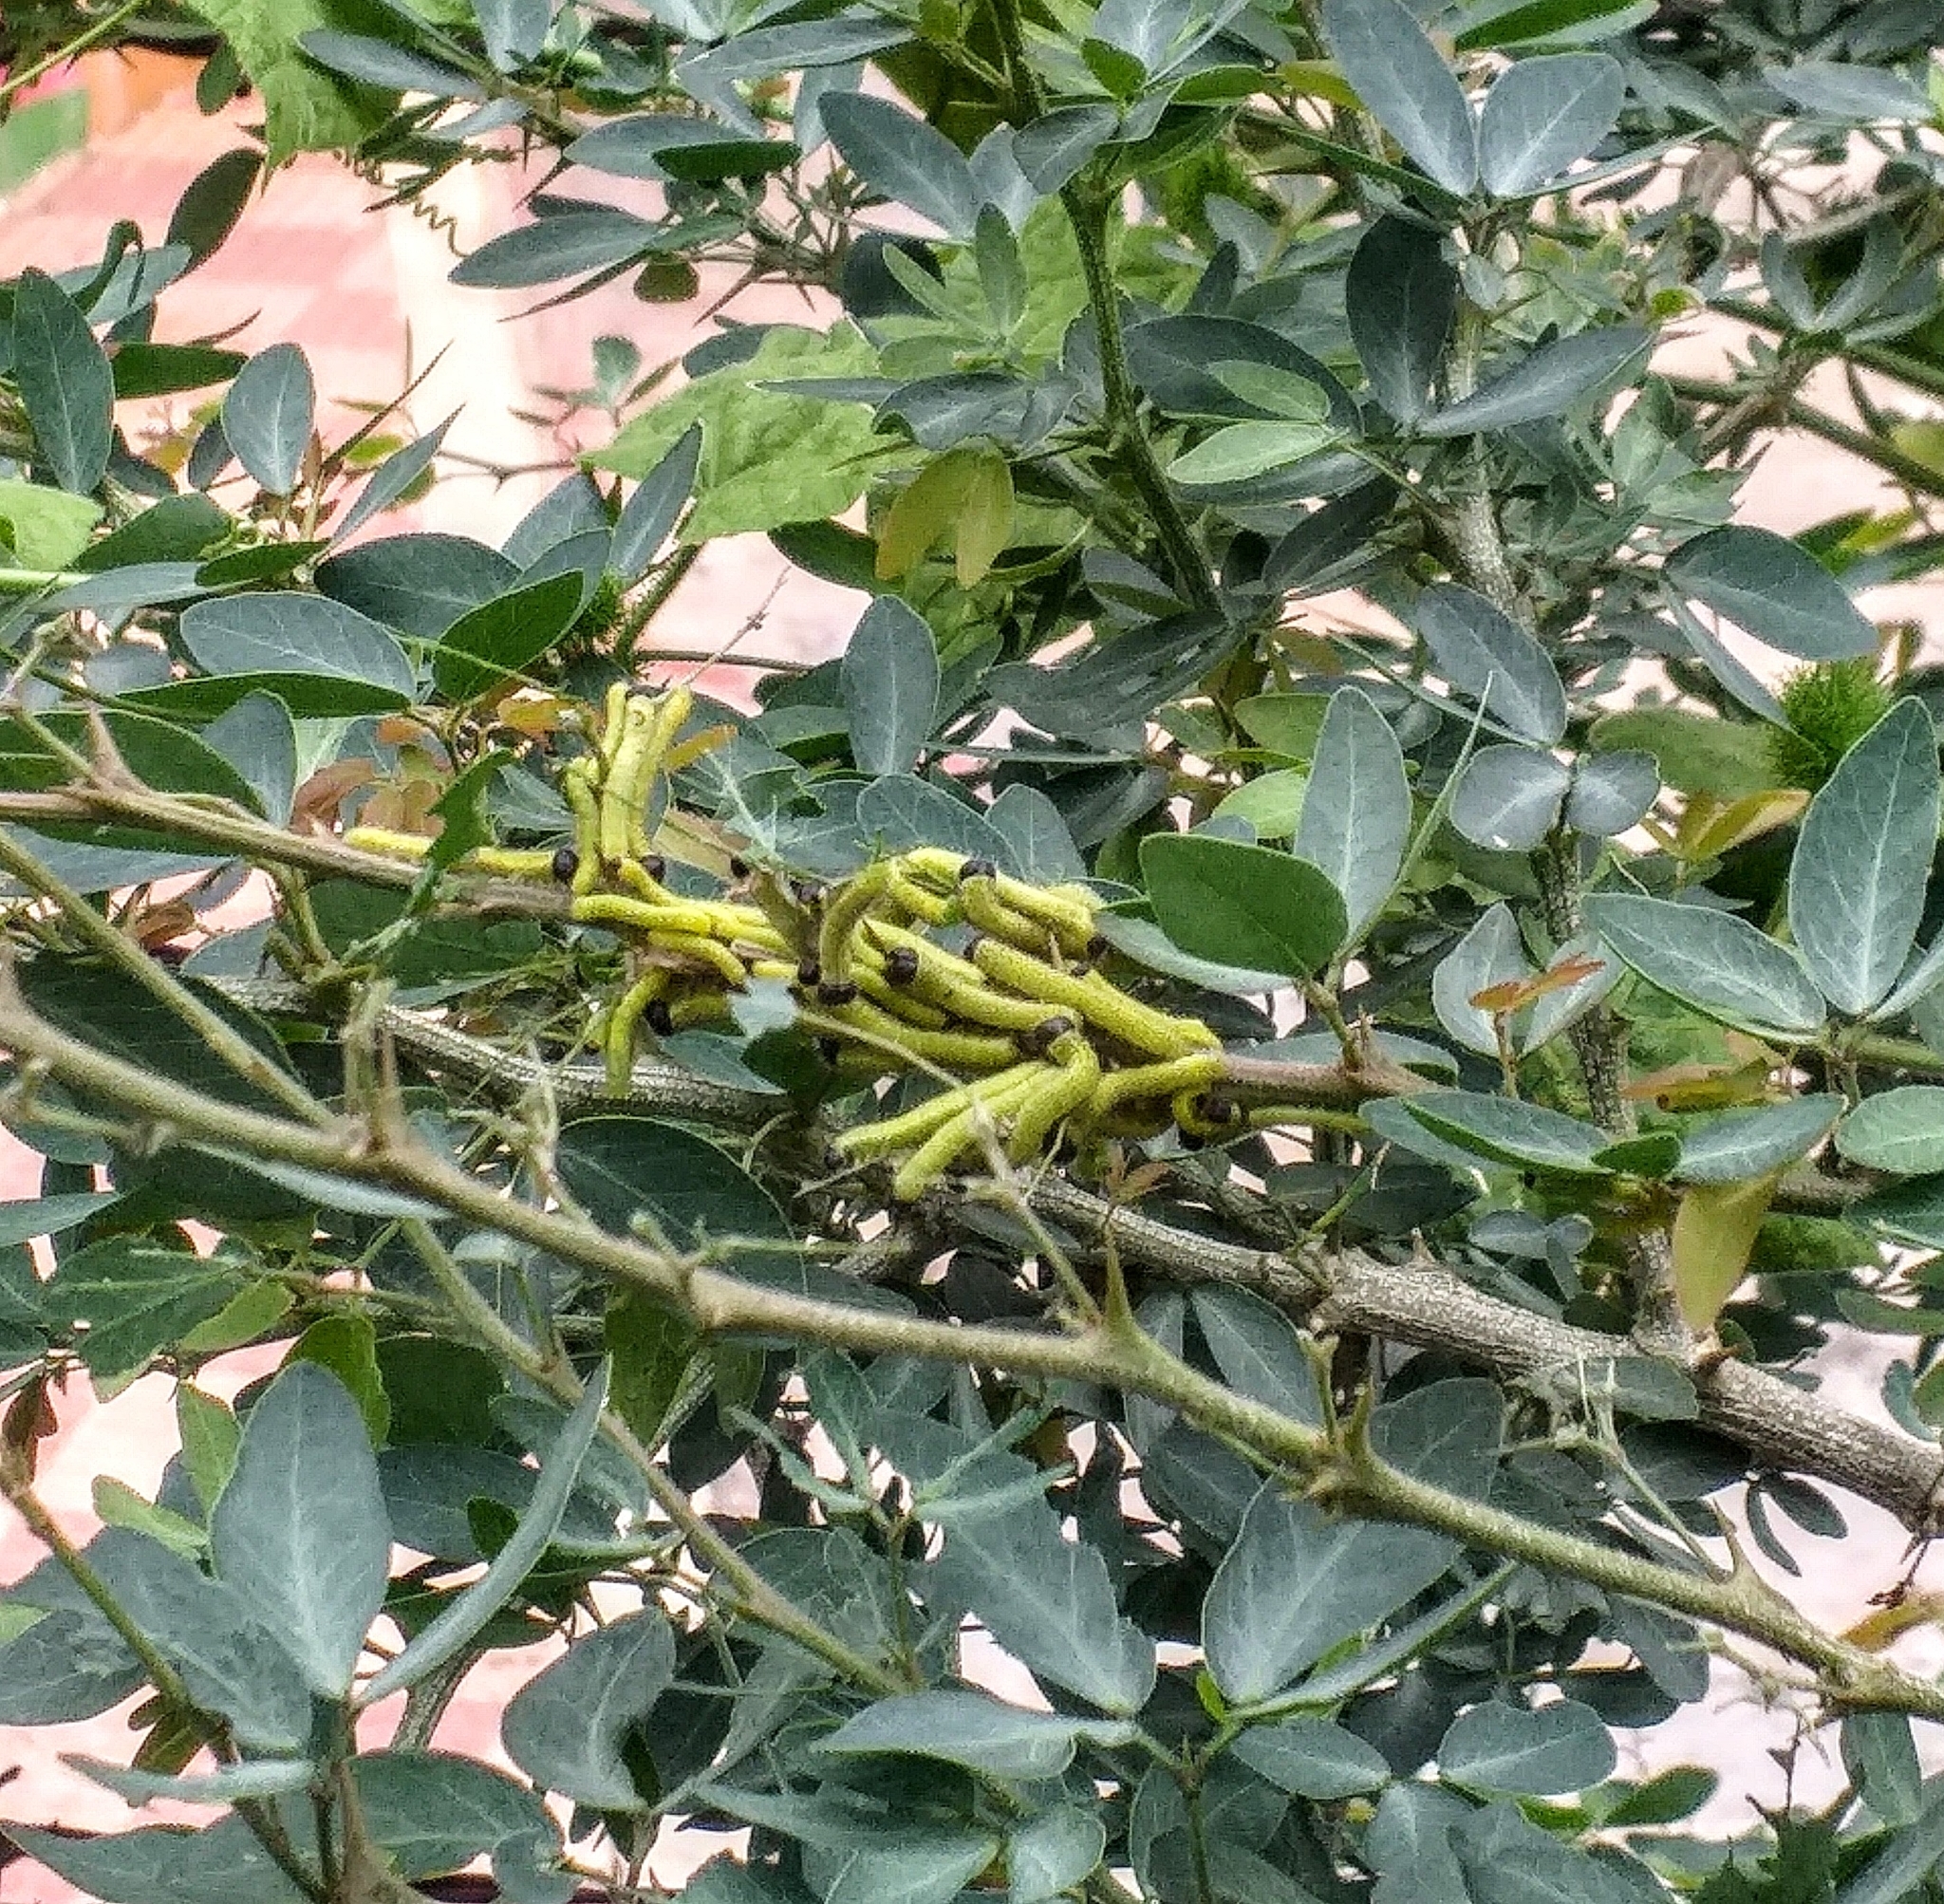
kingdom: Animalia
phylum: Arthropoda
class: Insecta
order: Lepidoptera
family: Pieridae
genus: Eurema
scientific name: Eurema blanda
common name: Three-spot grass yellow
